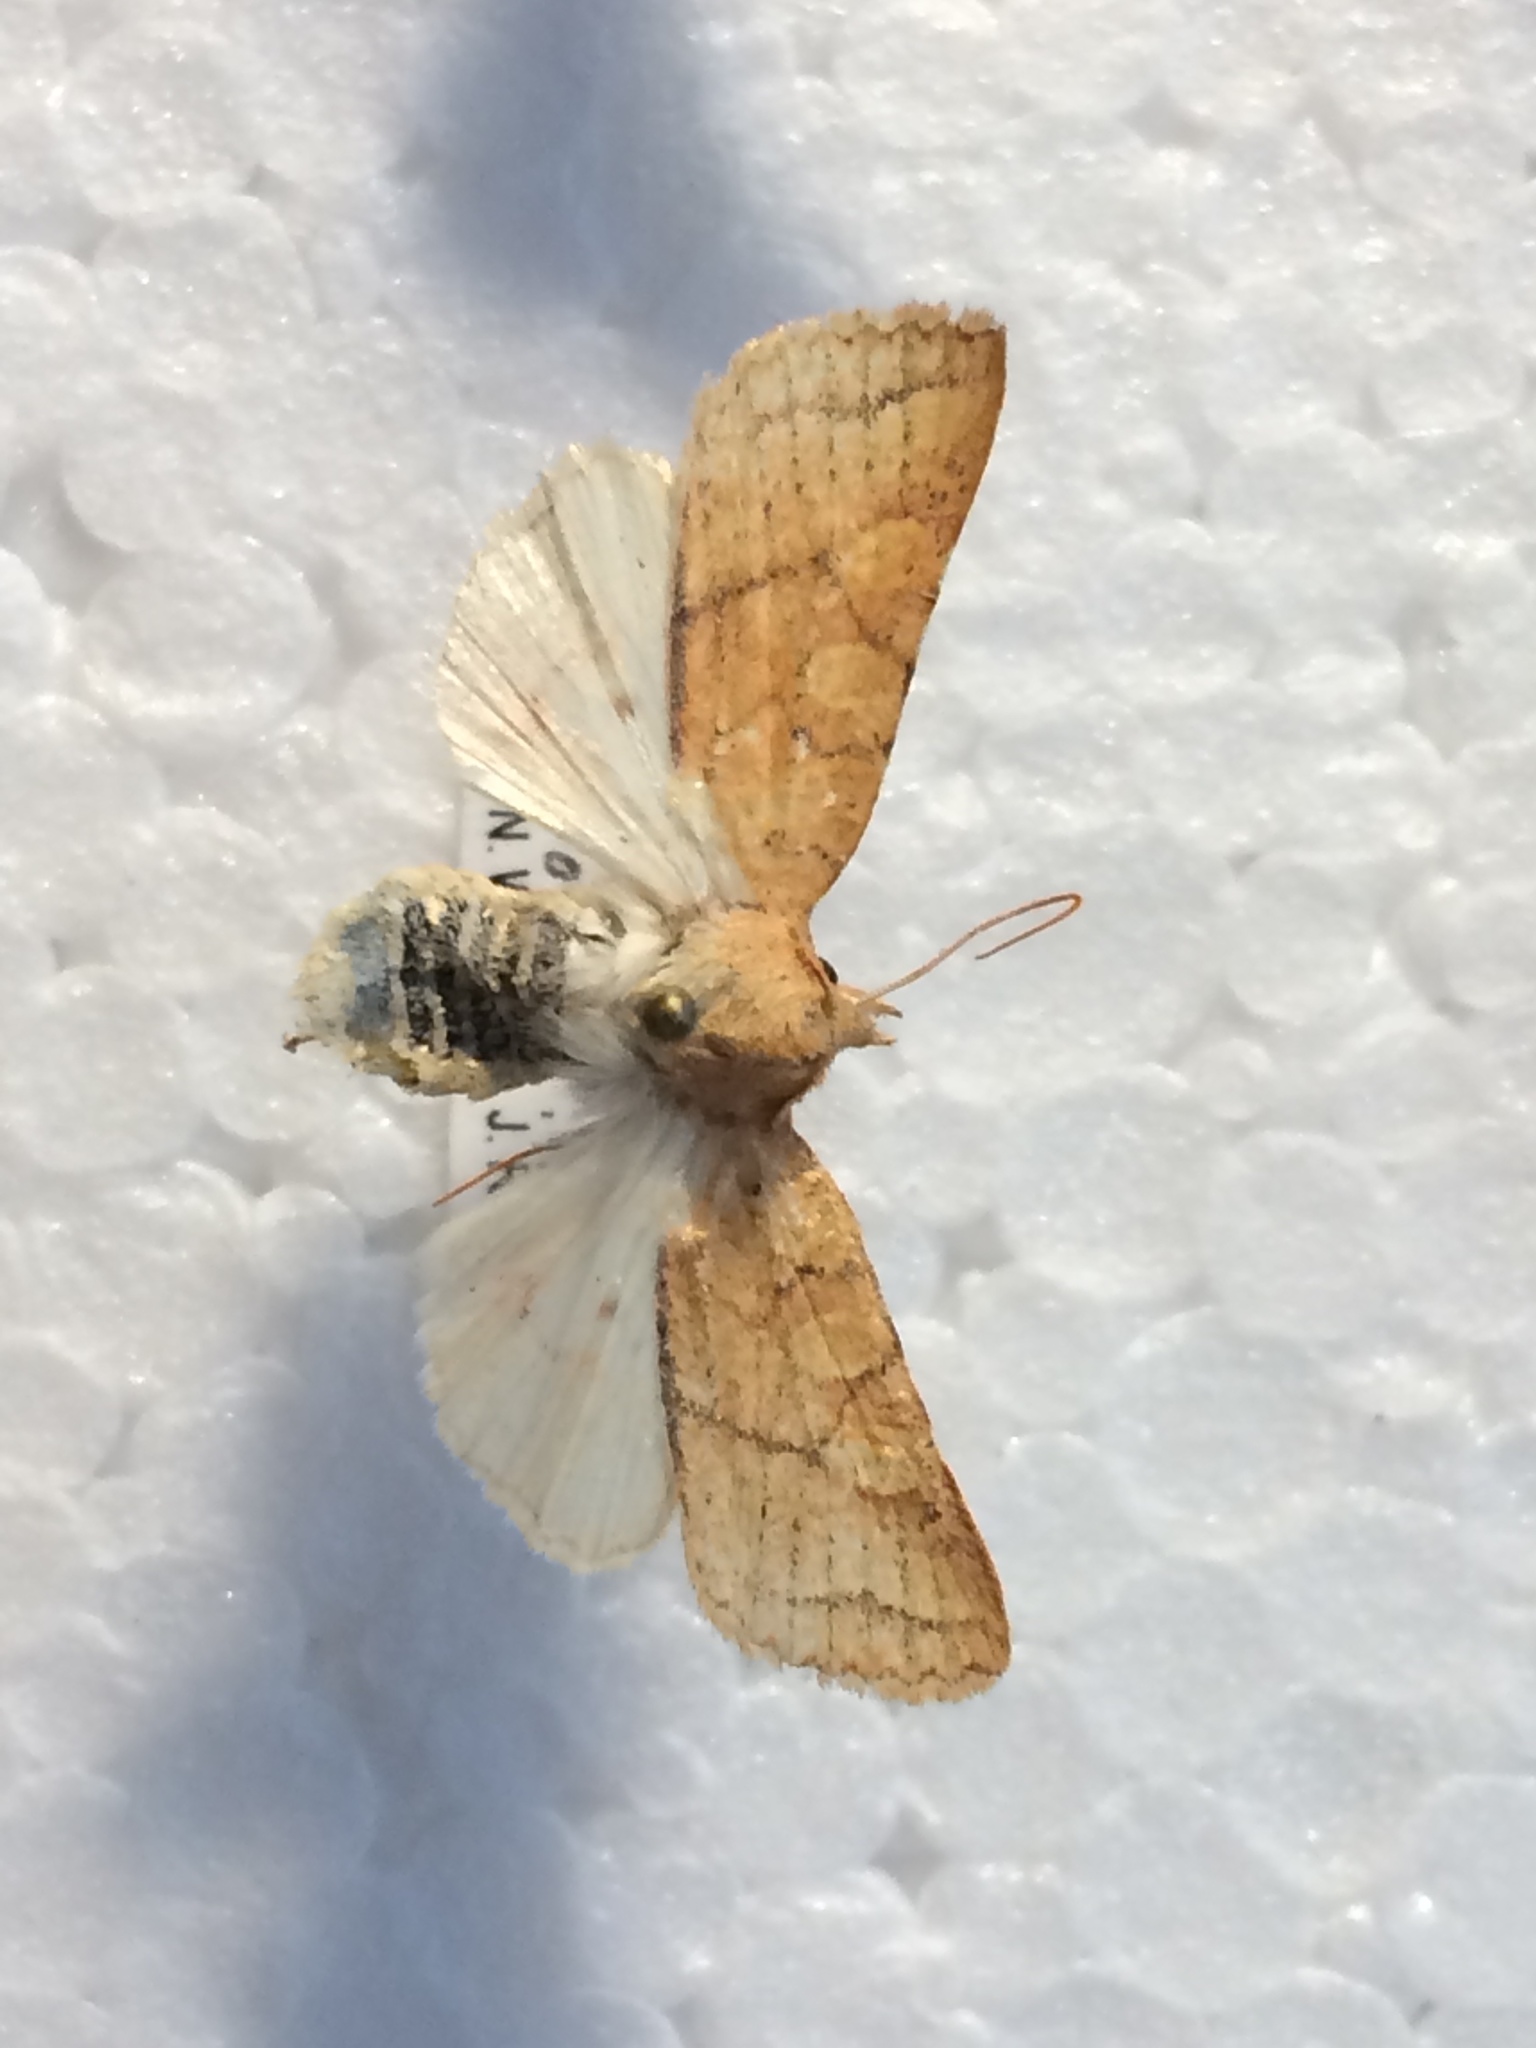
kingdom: Animalia
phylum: Arthropoda
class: Insecta
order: Lepidoptera
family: Noctuidae
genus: Jodia
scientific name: Jodia croceago
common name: Orange upperwing
